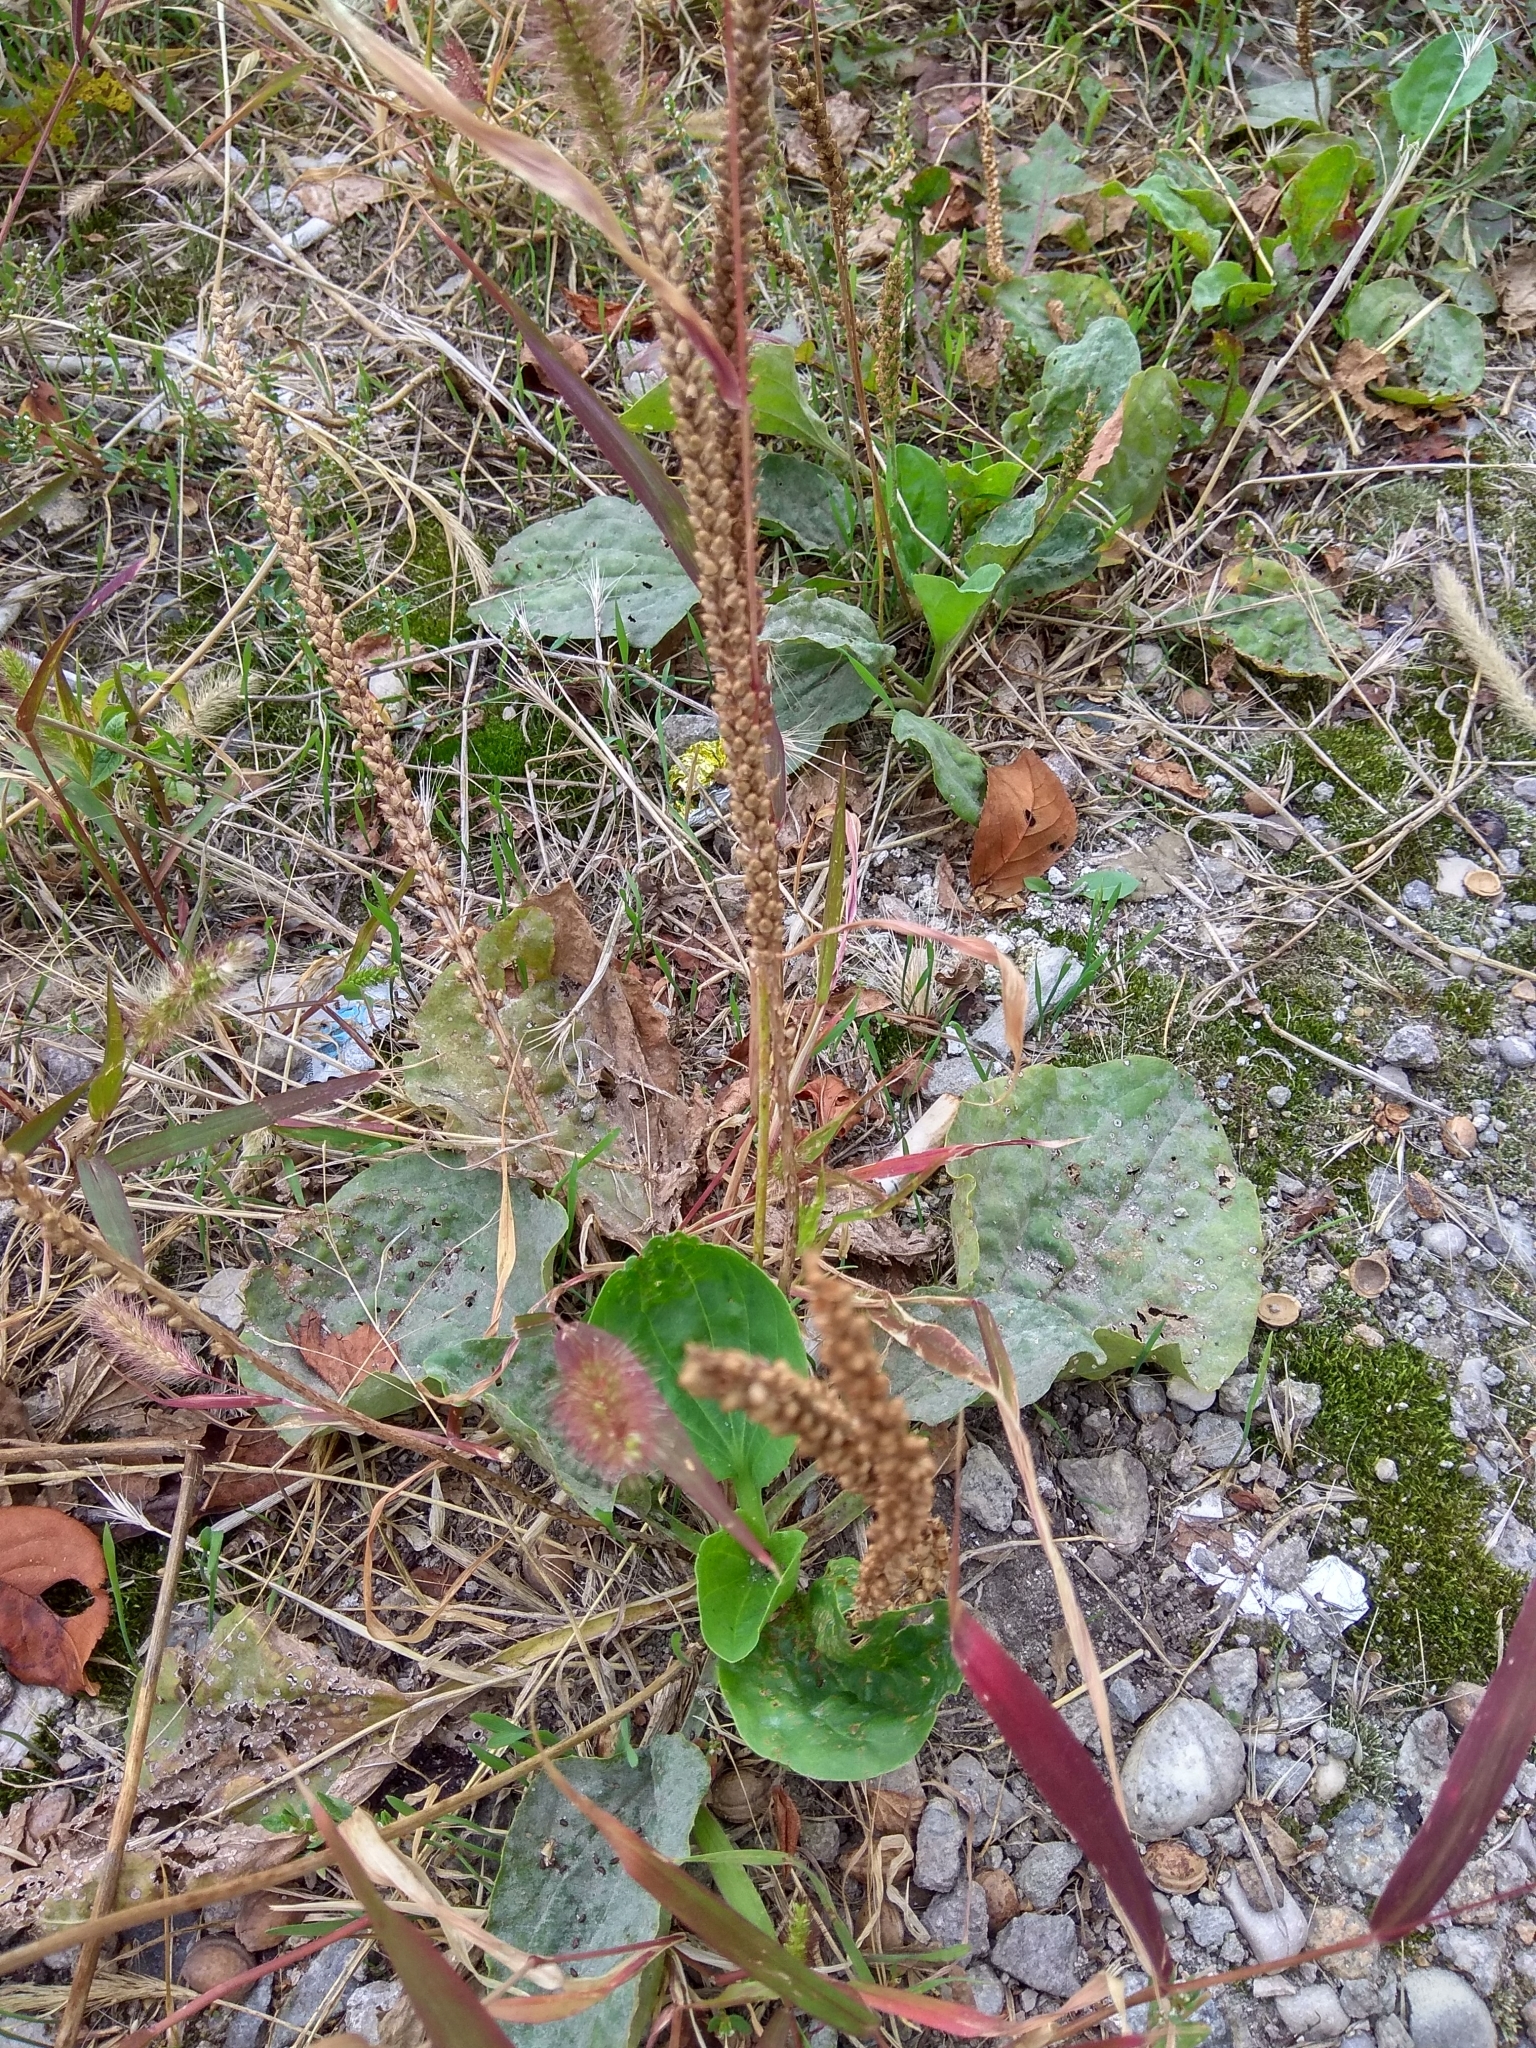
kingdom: Plantae
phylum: Tracheophyta
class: Magnoliopsida
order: Lamiales
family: Plantaginaceae
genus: Plantago
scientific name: Plantago major
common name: Common plantain
